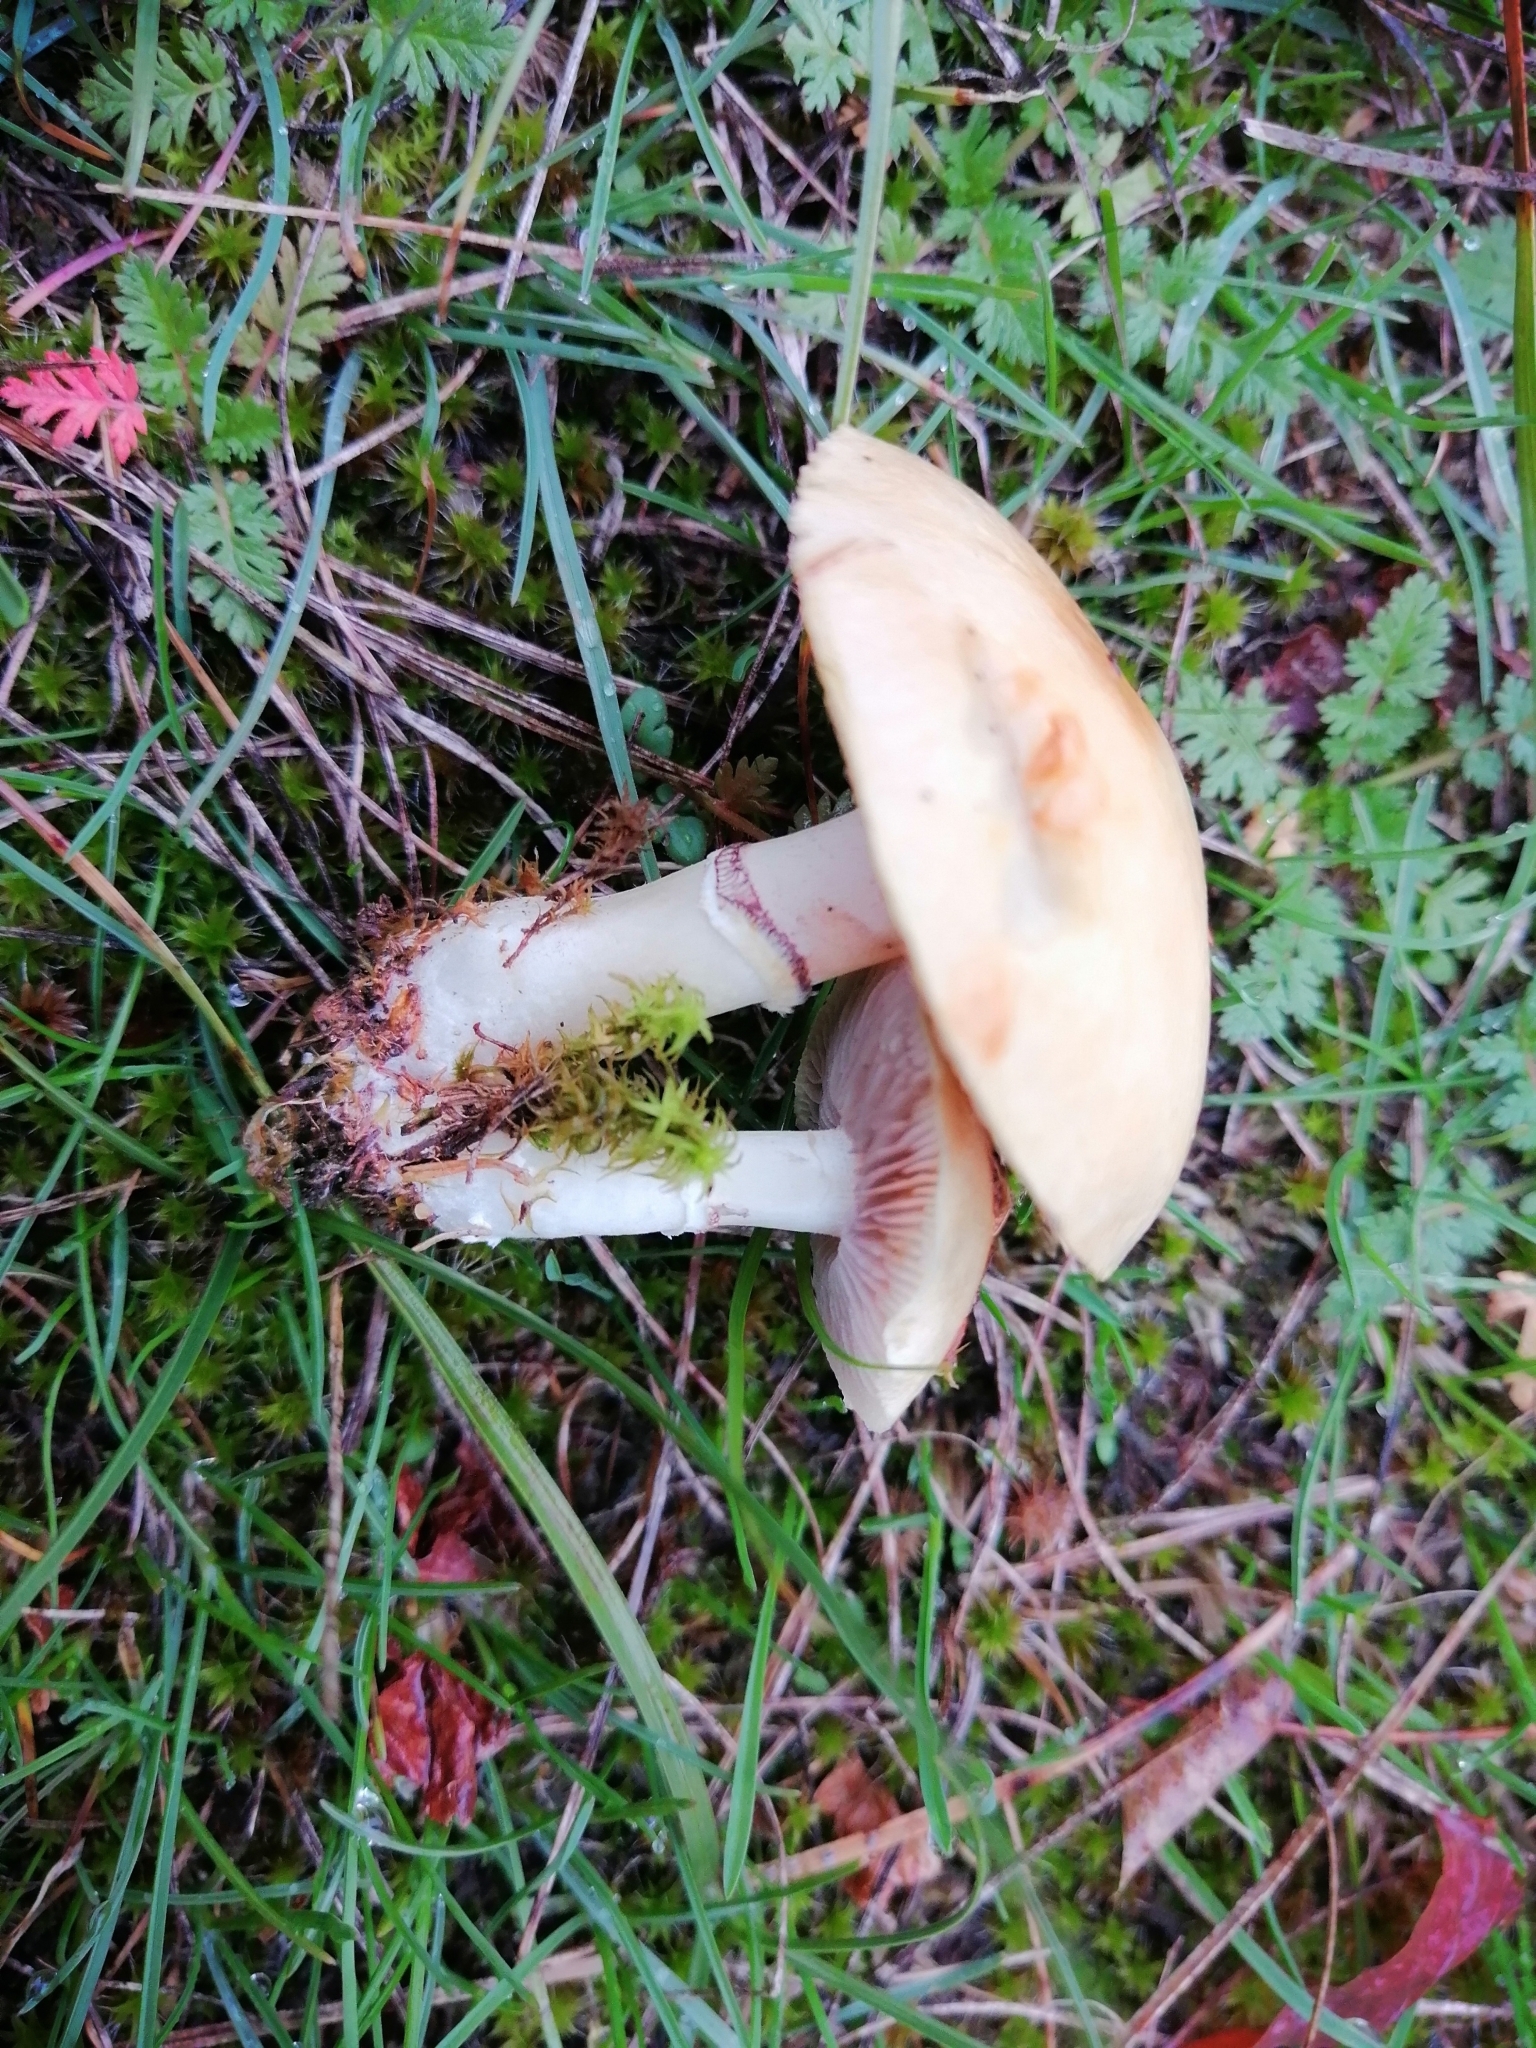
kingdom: Fungi
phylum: Basidiomycota
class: Agaricomycetes
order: Agaricales
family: Hymenogastraceae
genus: Psilocybe
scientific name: Psilocybe coronilla
